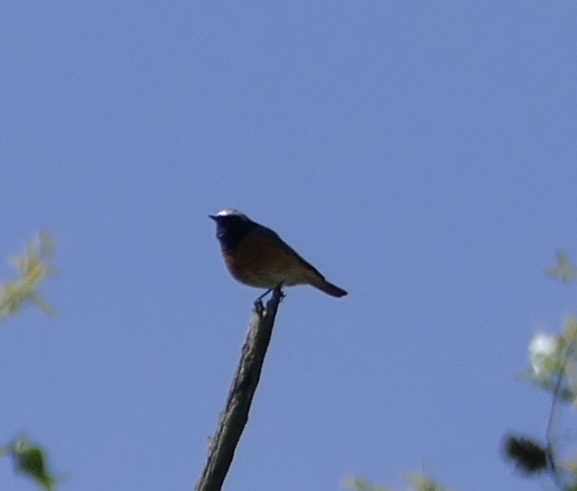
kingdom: Animalia
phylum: Chordata
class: Aves
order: Passeriformes
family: Muscicapidae
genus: Phoenicurus
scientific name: Phoenicurus phoenicurus
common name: Common redstart
